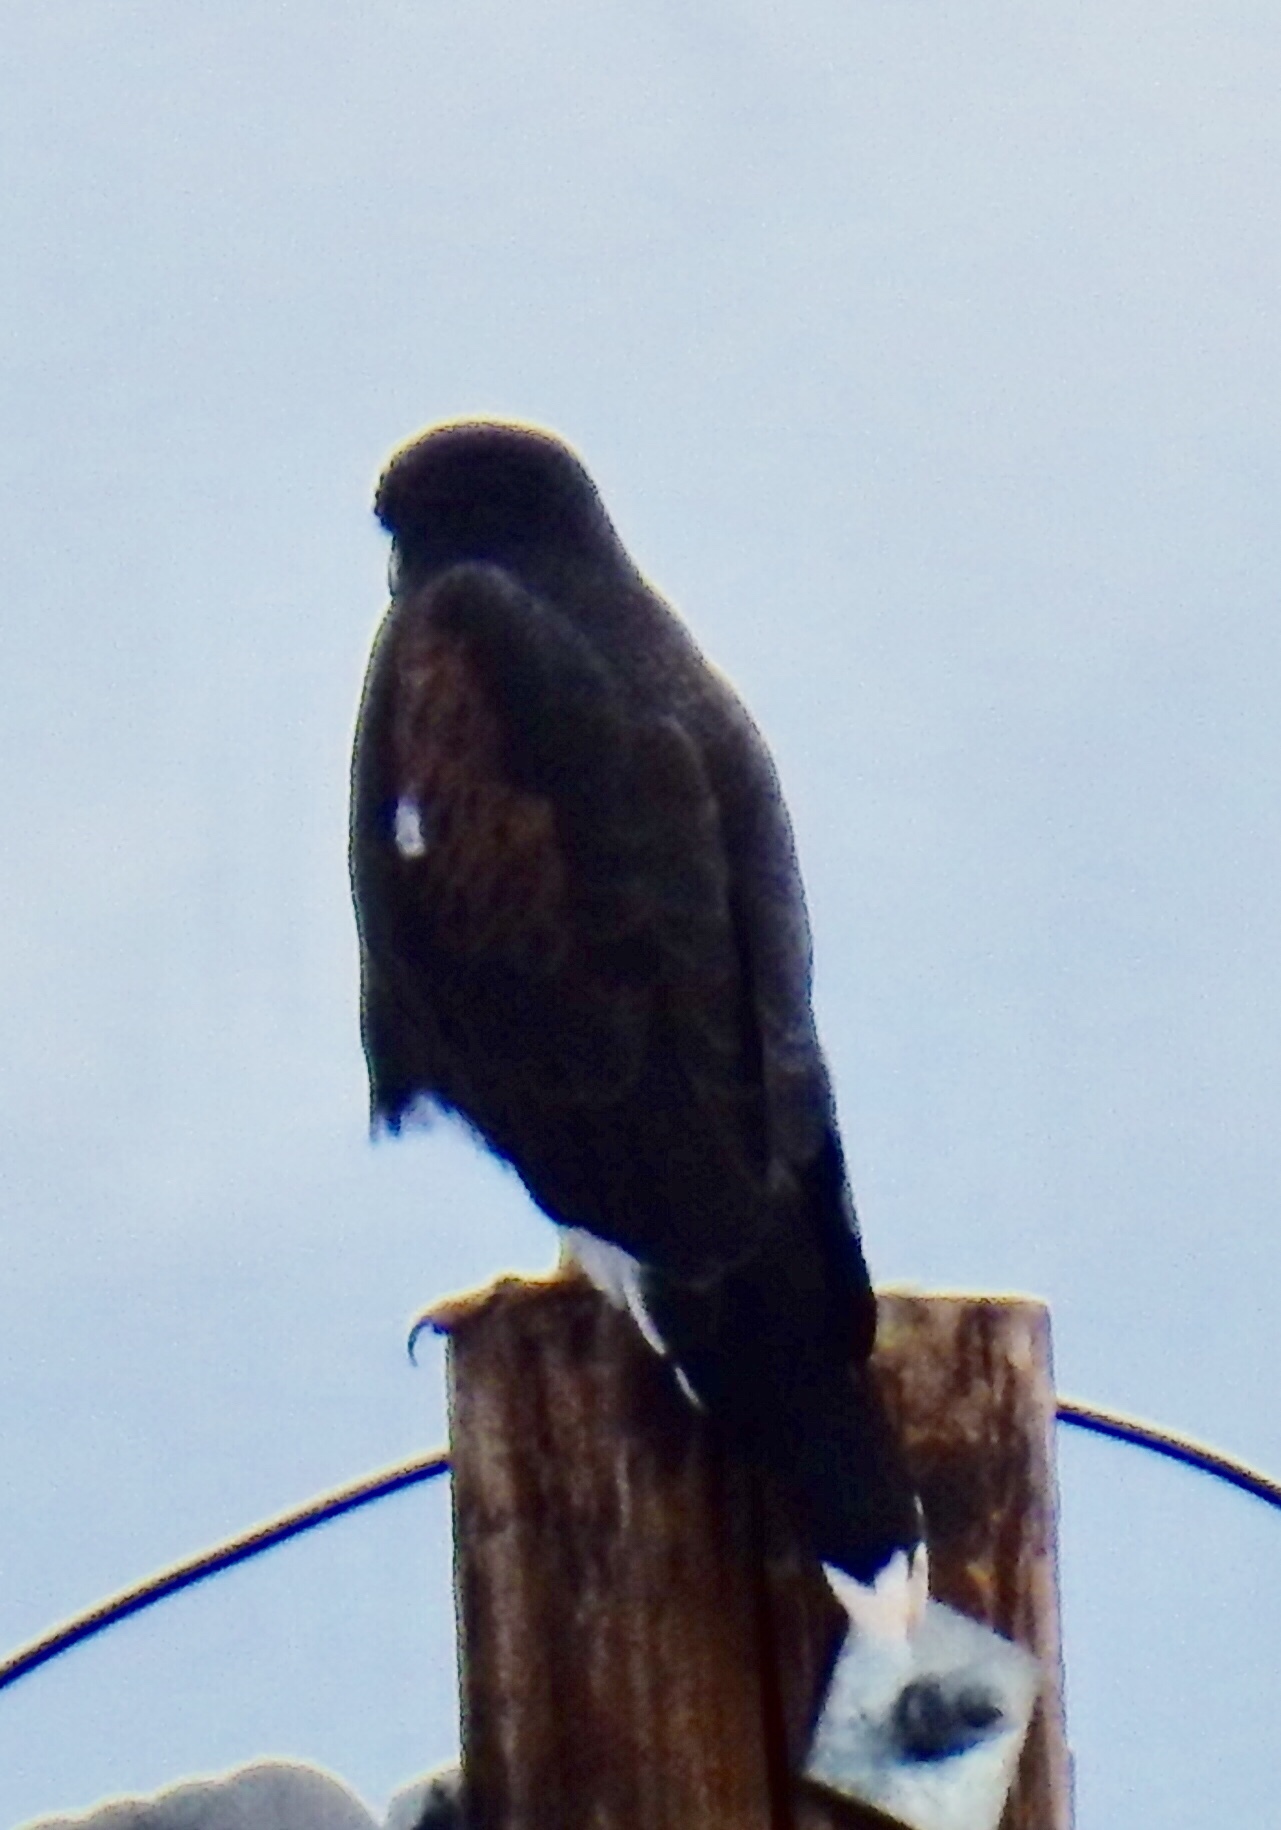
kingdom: Animalia
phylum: Chordata
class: Aves
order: Accipitriformes
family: Accipitridae
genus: Parabuteo
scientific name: Parabuteo unicinctus
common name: Harris's hawk
